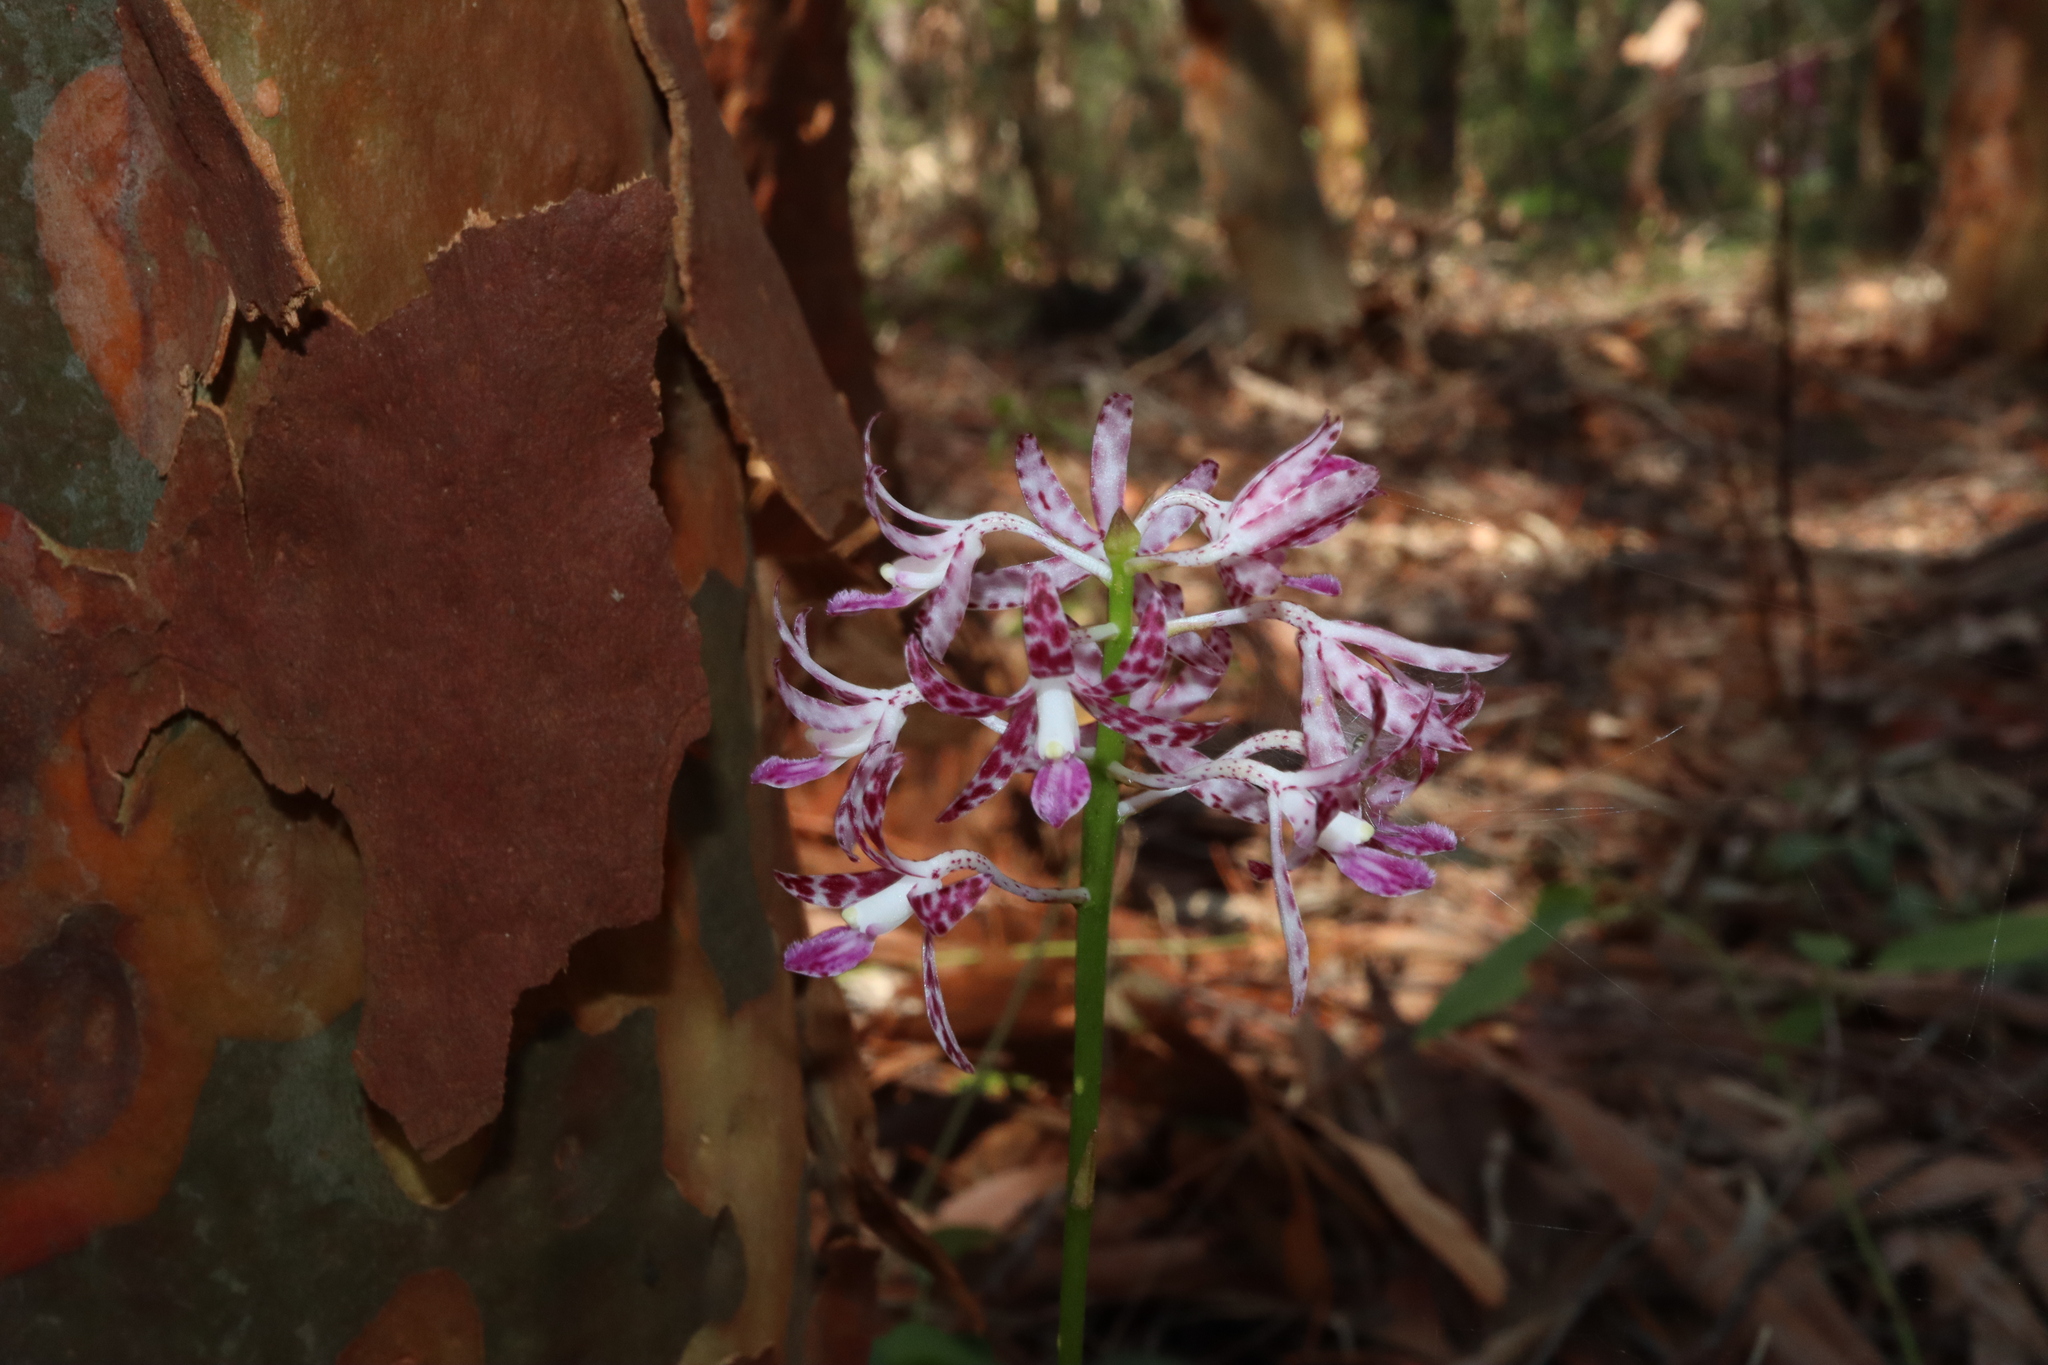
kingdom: Plantae
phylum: Tracheophyta
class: Liliopsida
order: Asparagales
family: Orchidaceae
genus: Dipodium
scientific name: Dipodium variegatum
